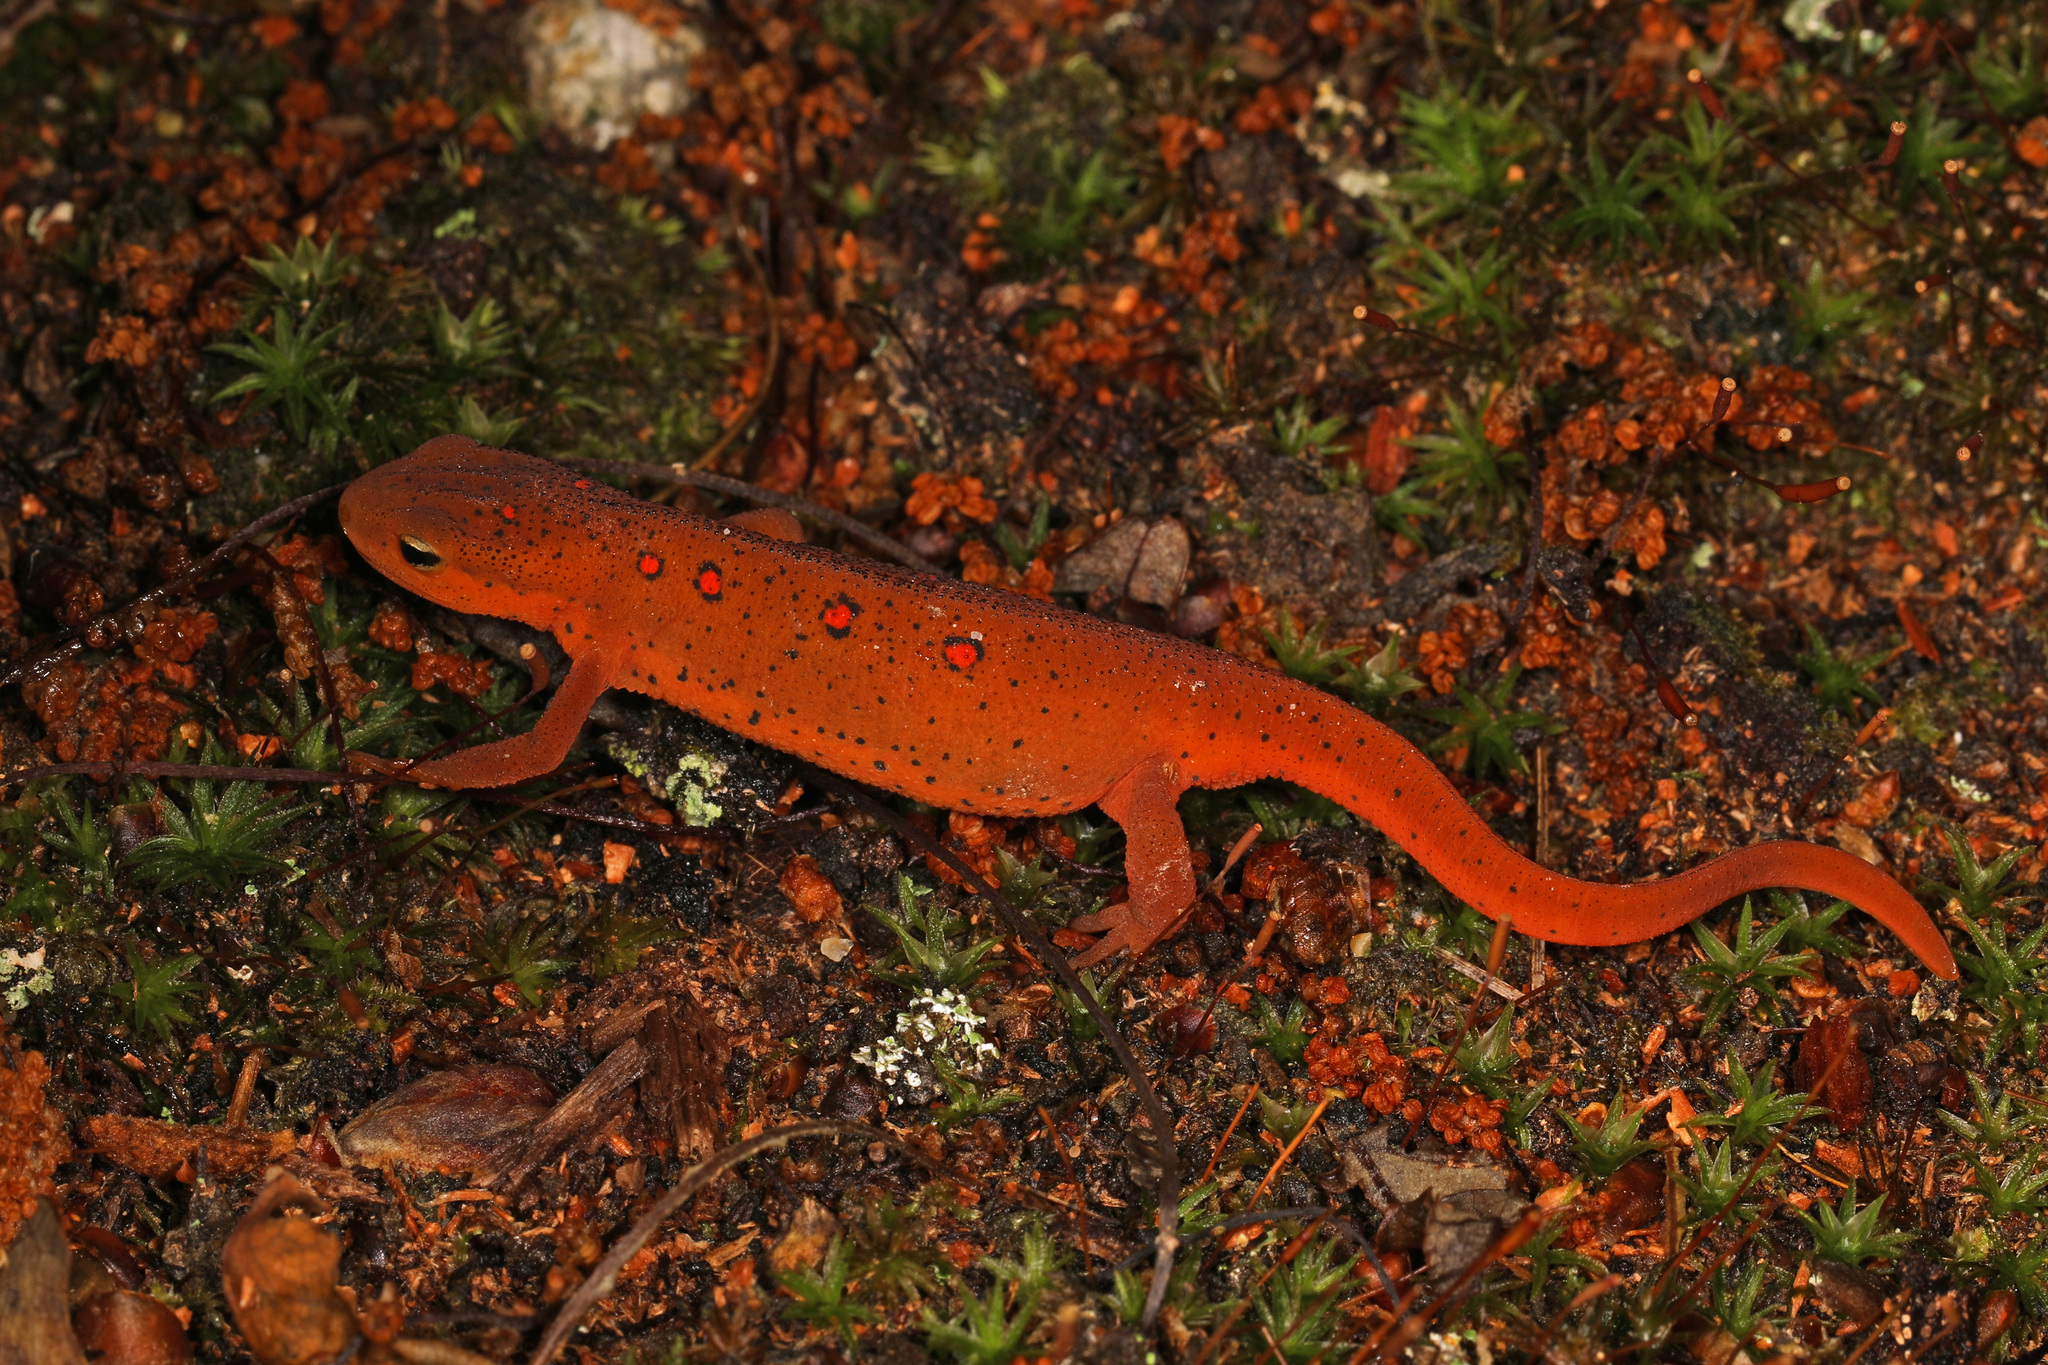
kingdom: Animalia
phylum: Chordata
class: Amphibia
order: Caudata
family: Salamandridae
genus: Notophthalmus
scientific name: Notophthalmus viridescens
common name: Eastern newt
